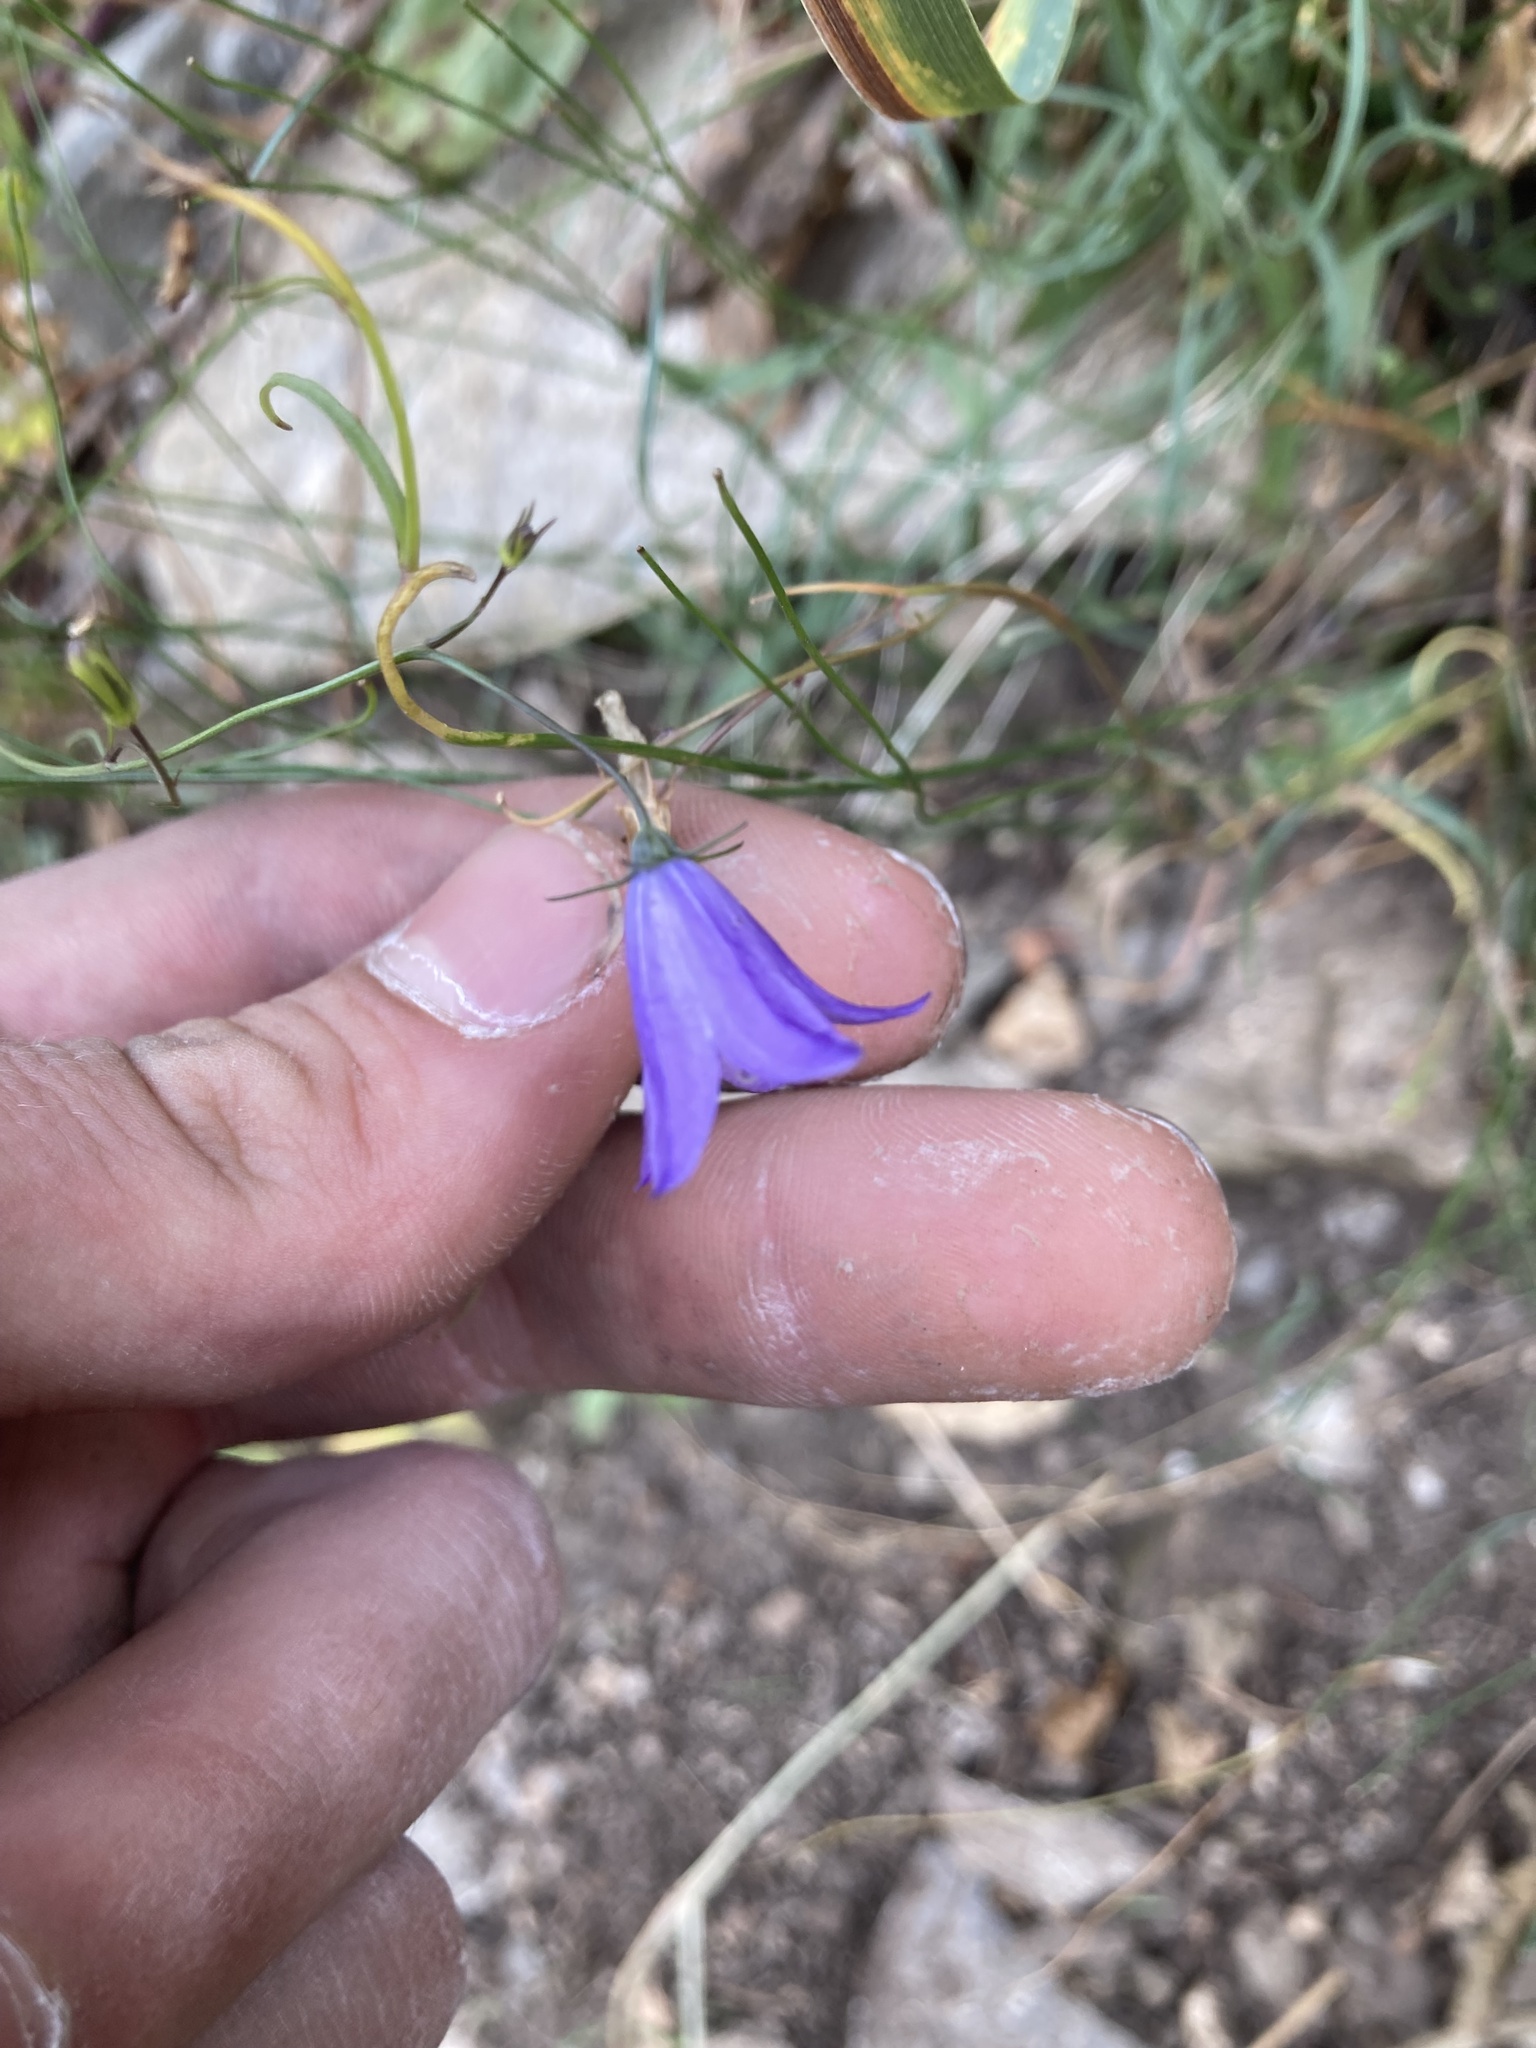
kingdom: Plantae
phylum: Tracheophyta
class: Magnoliopsida
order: Asterales
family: Campanulaceae
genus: Campanula
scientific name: Campanula petiolata
